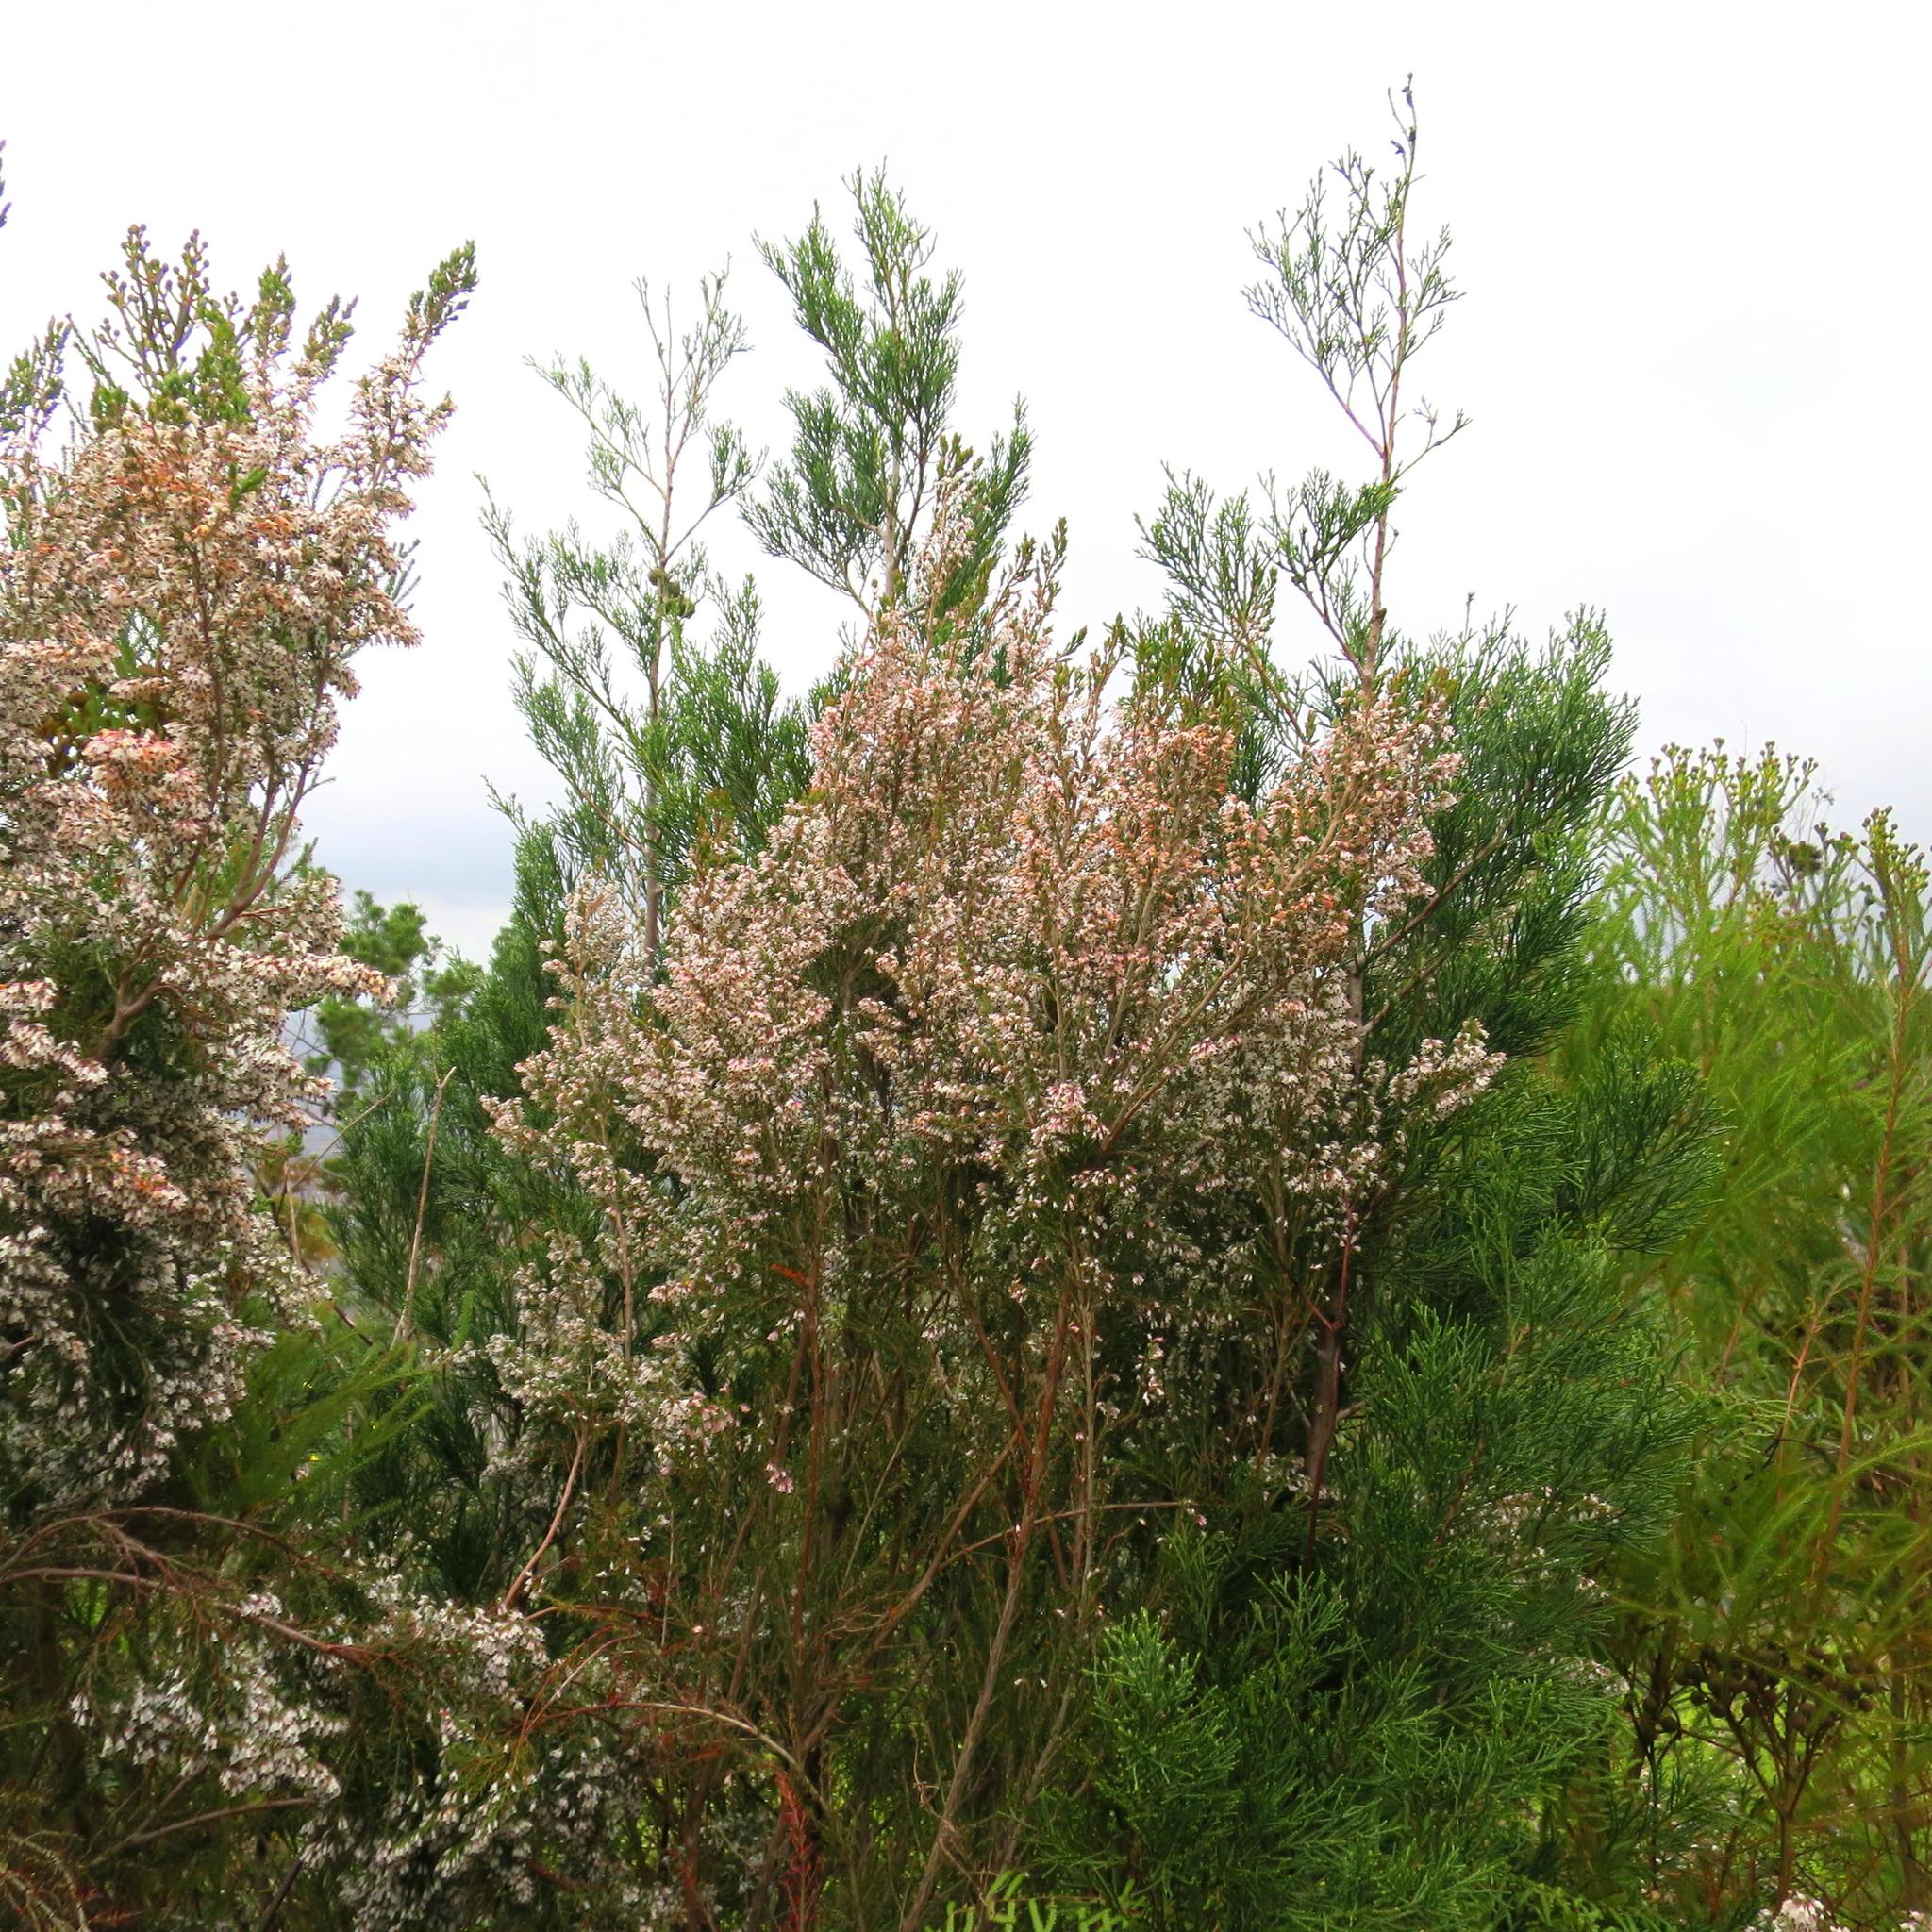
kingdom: Plantae
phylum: Tracheophyta
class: Magnoliopsida
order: Ericales
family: Ericaceae
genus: Erica
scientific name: Erica fuscescens
